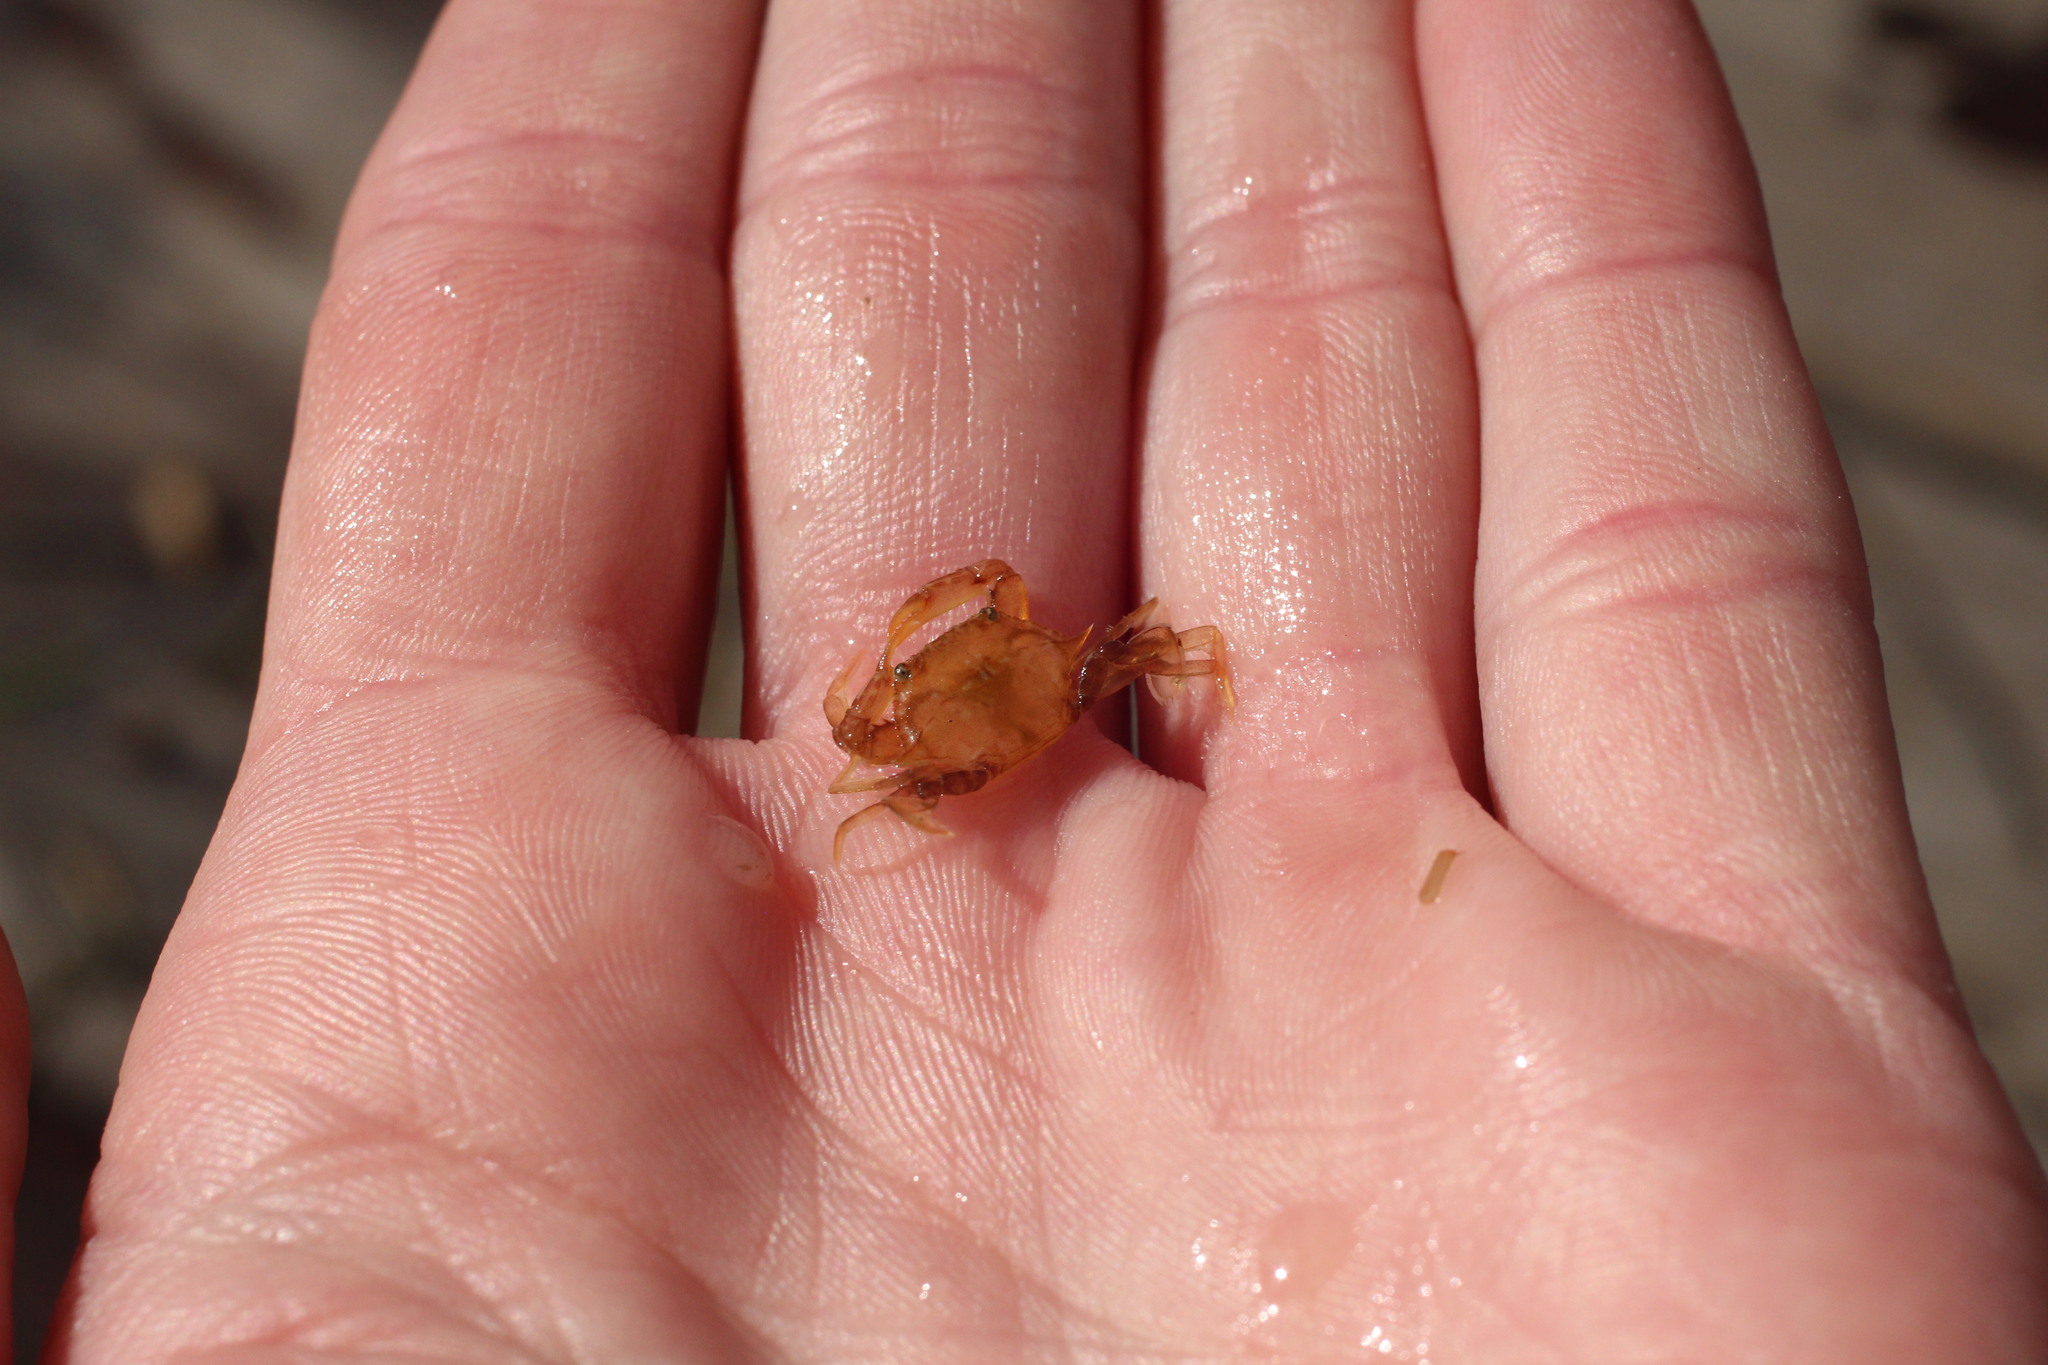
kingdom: Animalia
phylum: Arthropoda
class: Malacostraca
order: Decapoda
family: Portunidae
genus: Portunus
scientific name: Portunus sayi
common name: Sargassum crab
